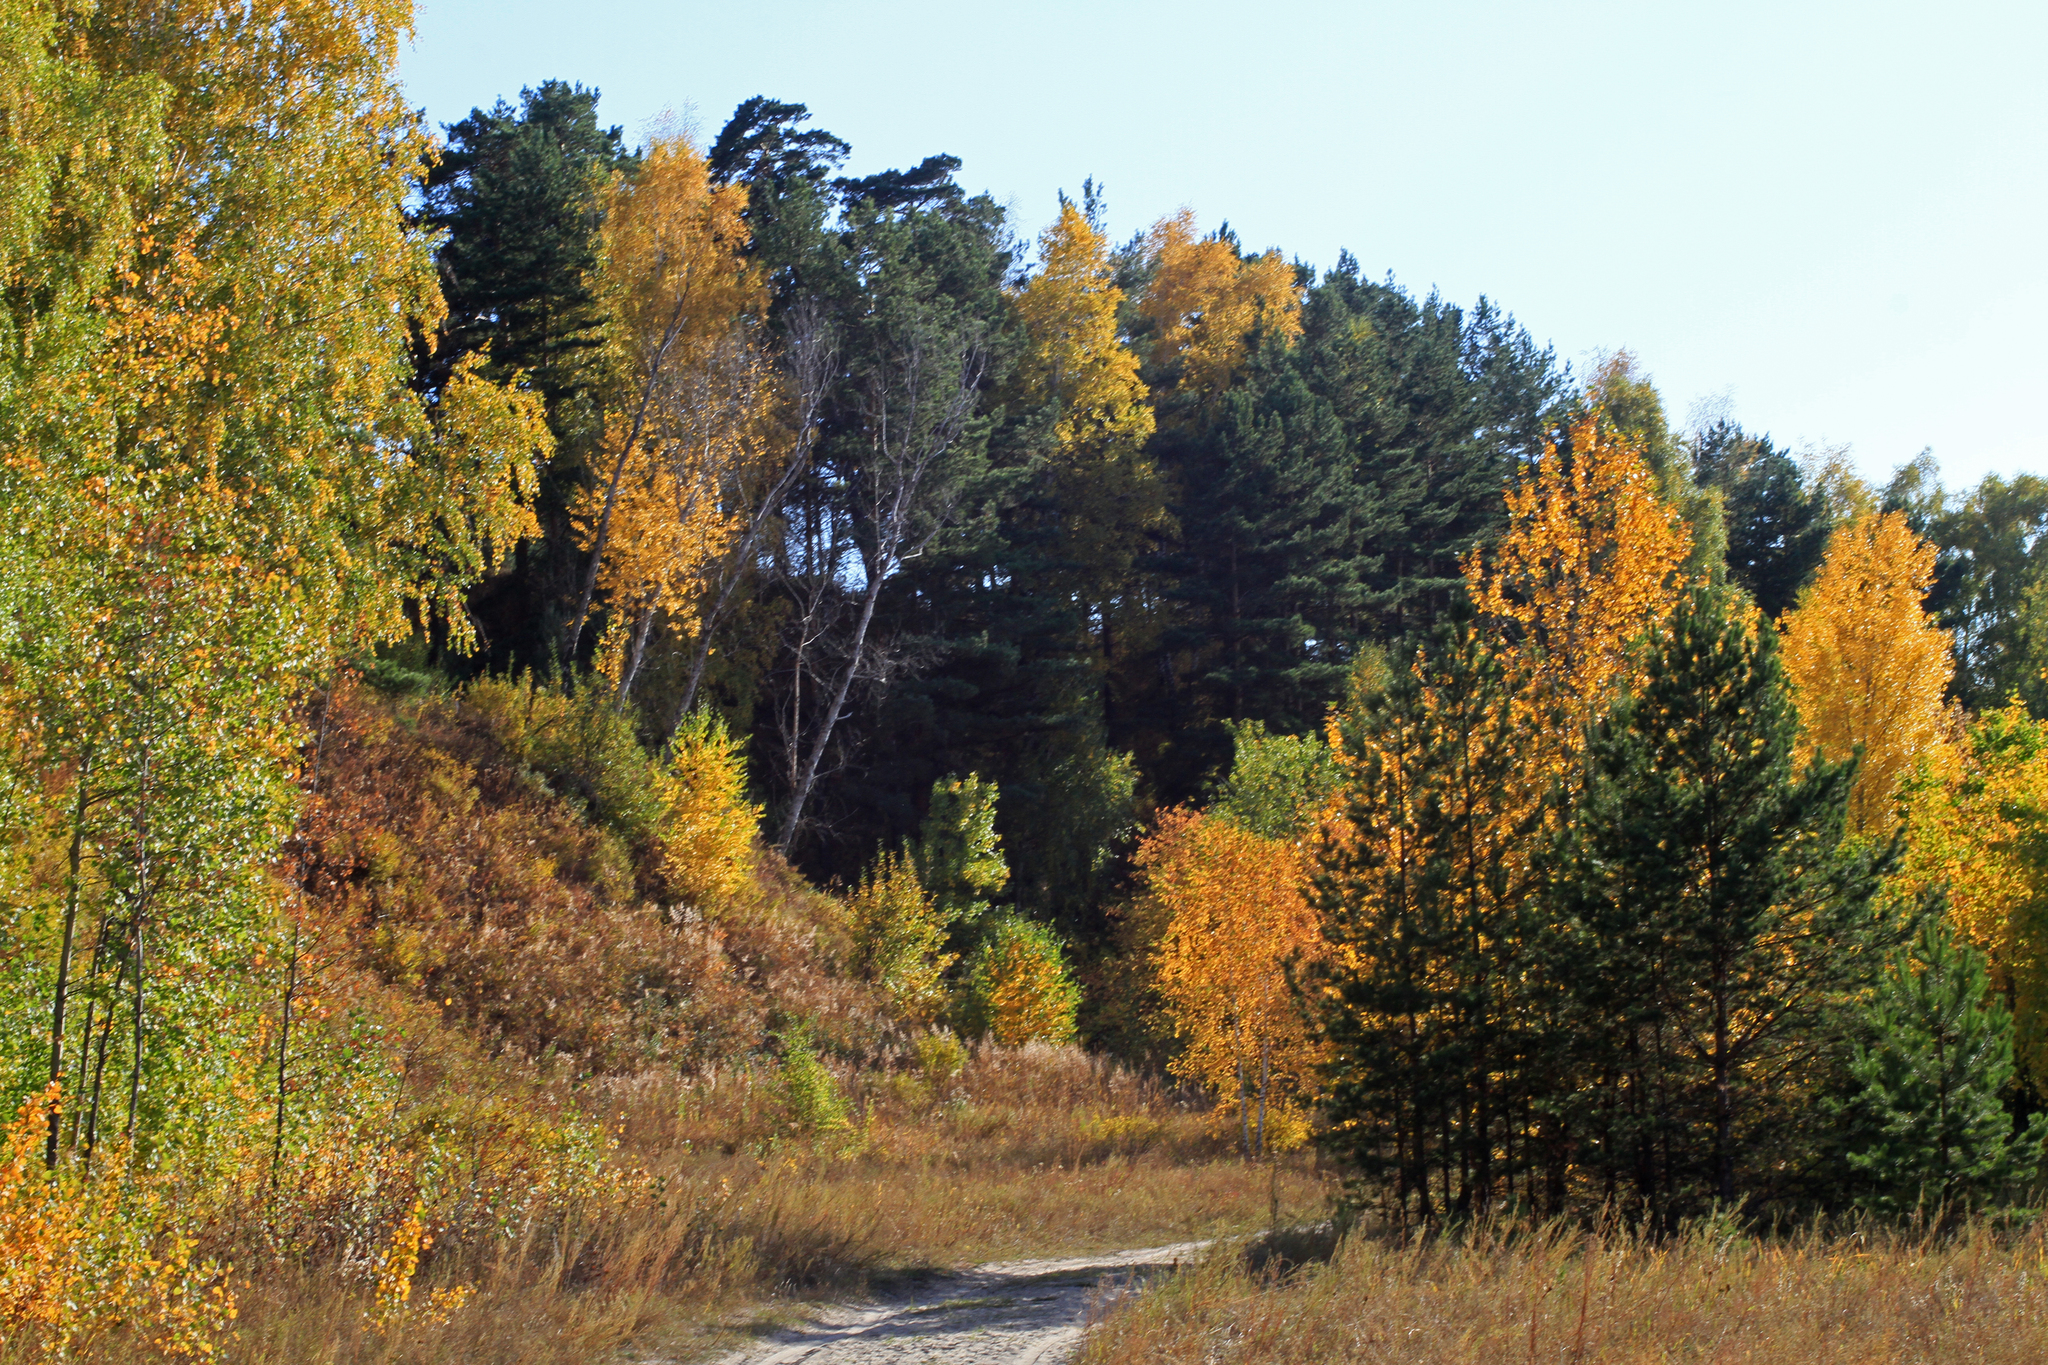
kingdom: Plantae
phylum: Tracheophyta
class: Pinopsida
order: Pinales
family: Pinaceae
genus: Pinus
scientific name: Pinus sylvestris
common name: Scots pine
